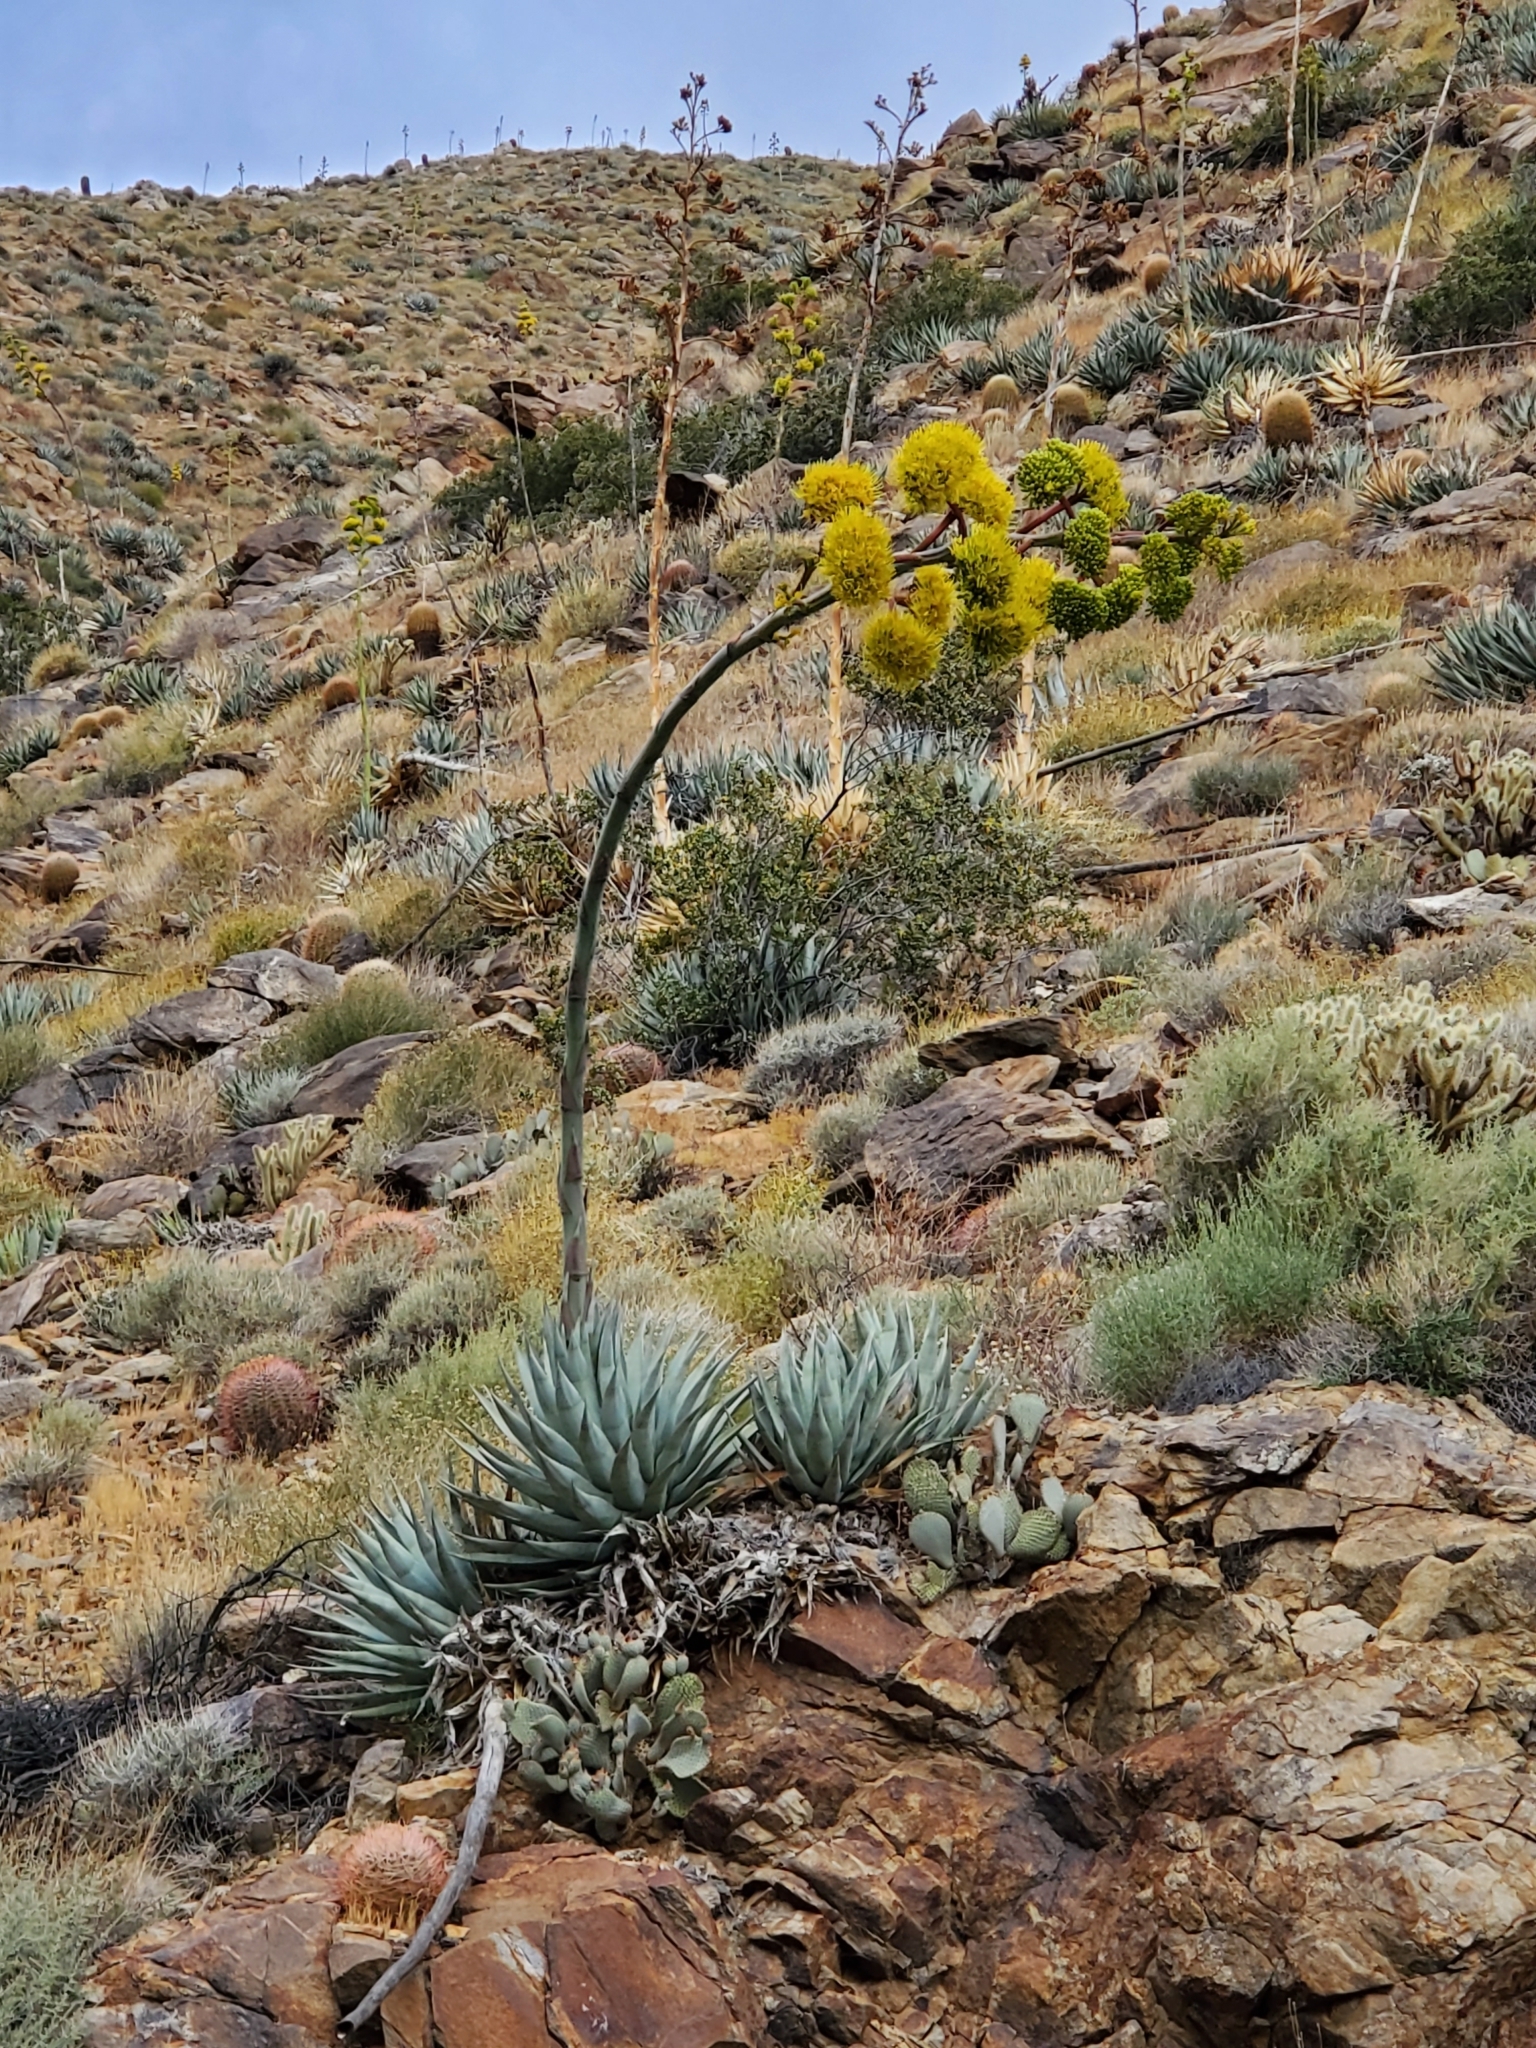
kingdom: Plantae
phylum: Tracheophyta
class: Liliopsida
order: Asparagales
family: Asparagaceae
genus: Agave
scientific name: Agave deserti
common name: Desert agave
